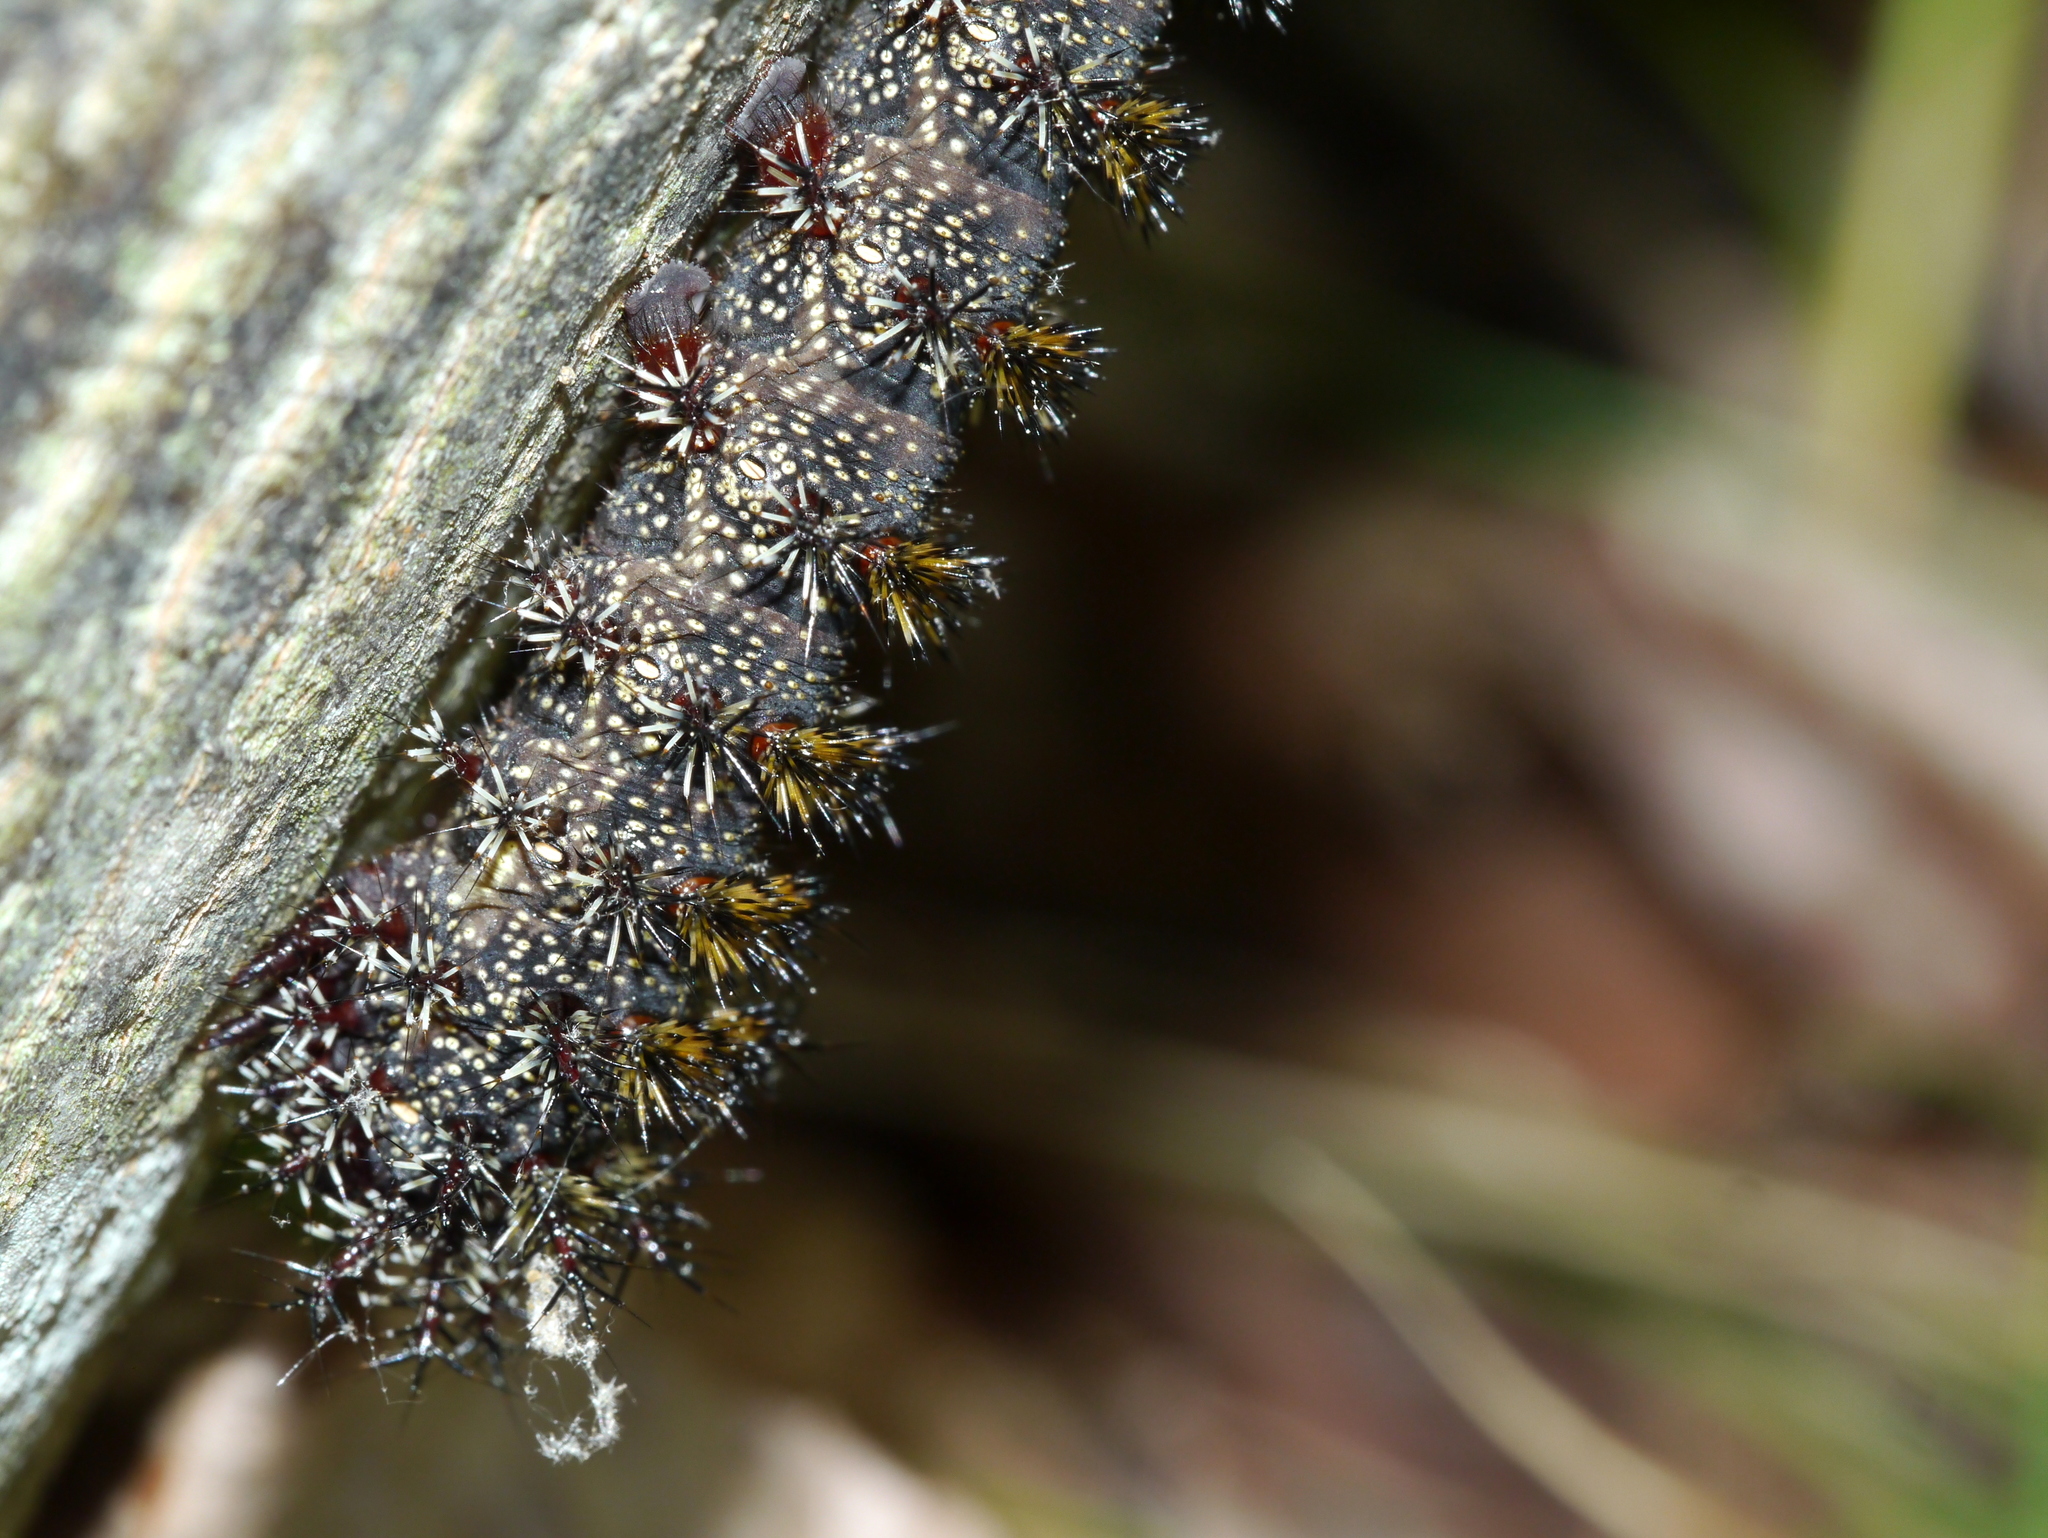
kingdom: Animalia
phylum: Arthropoda
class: Insecta
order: Lepidoptera
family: Saturniidae
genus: Hemileuca
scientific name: Hemileuca maia
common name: Eastern buckmoth
